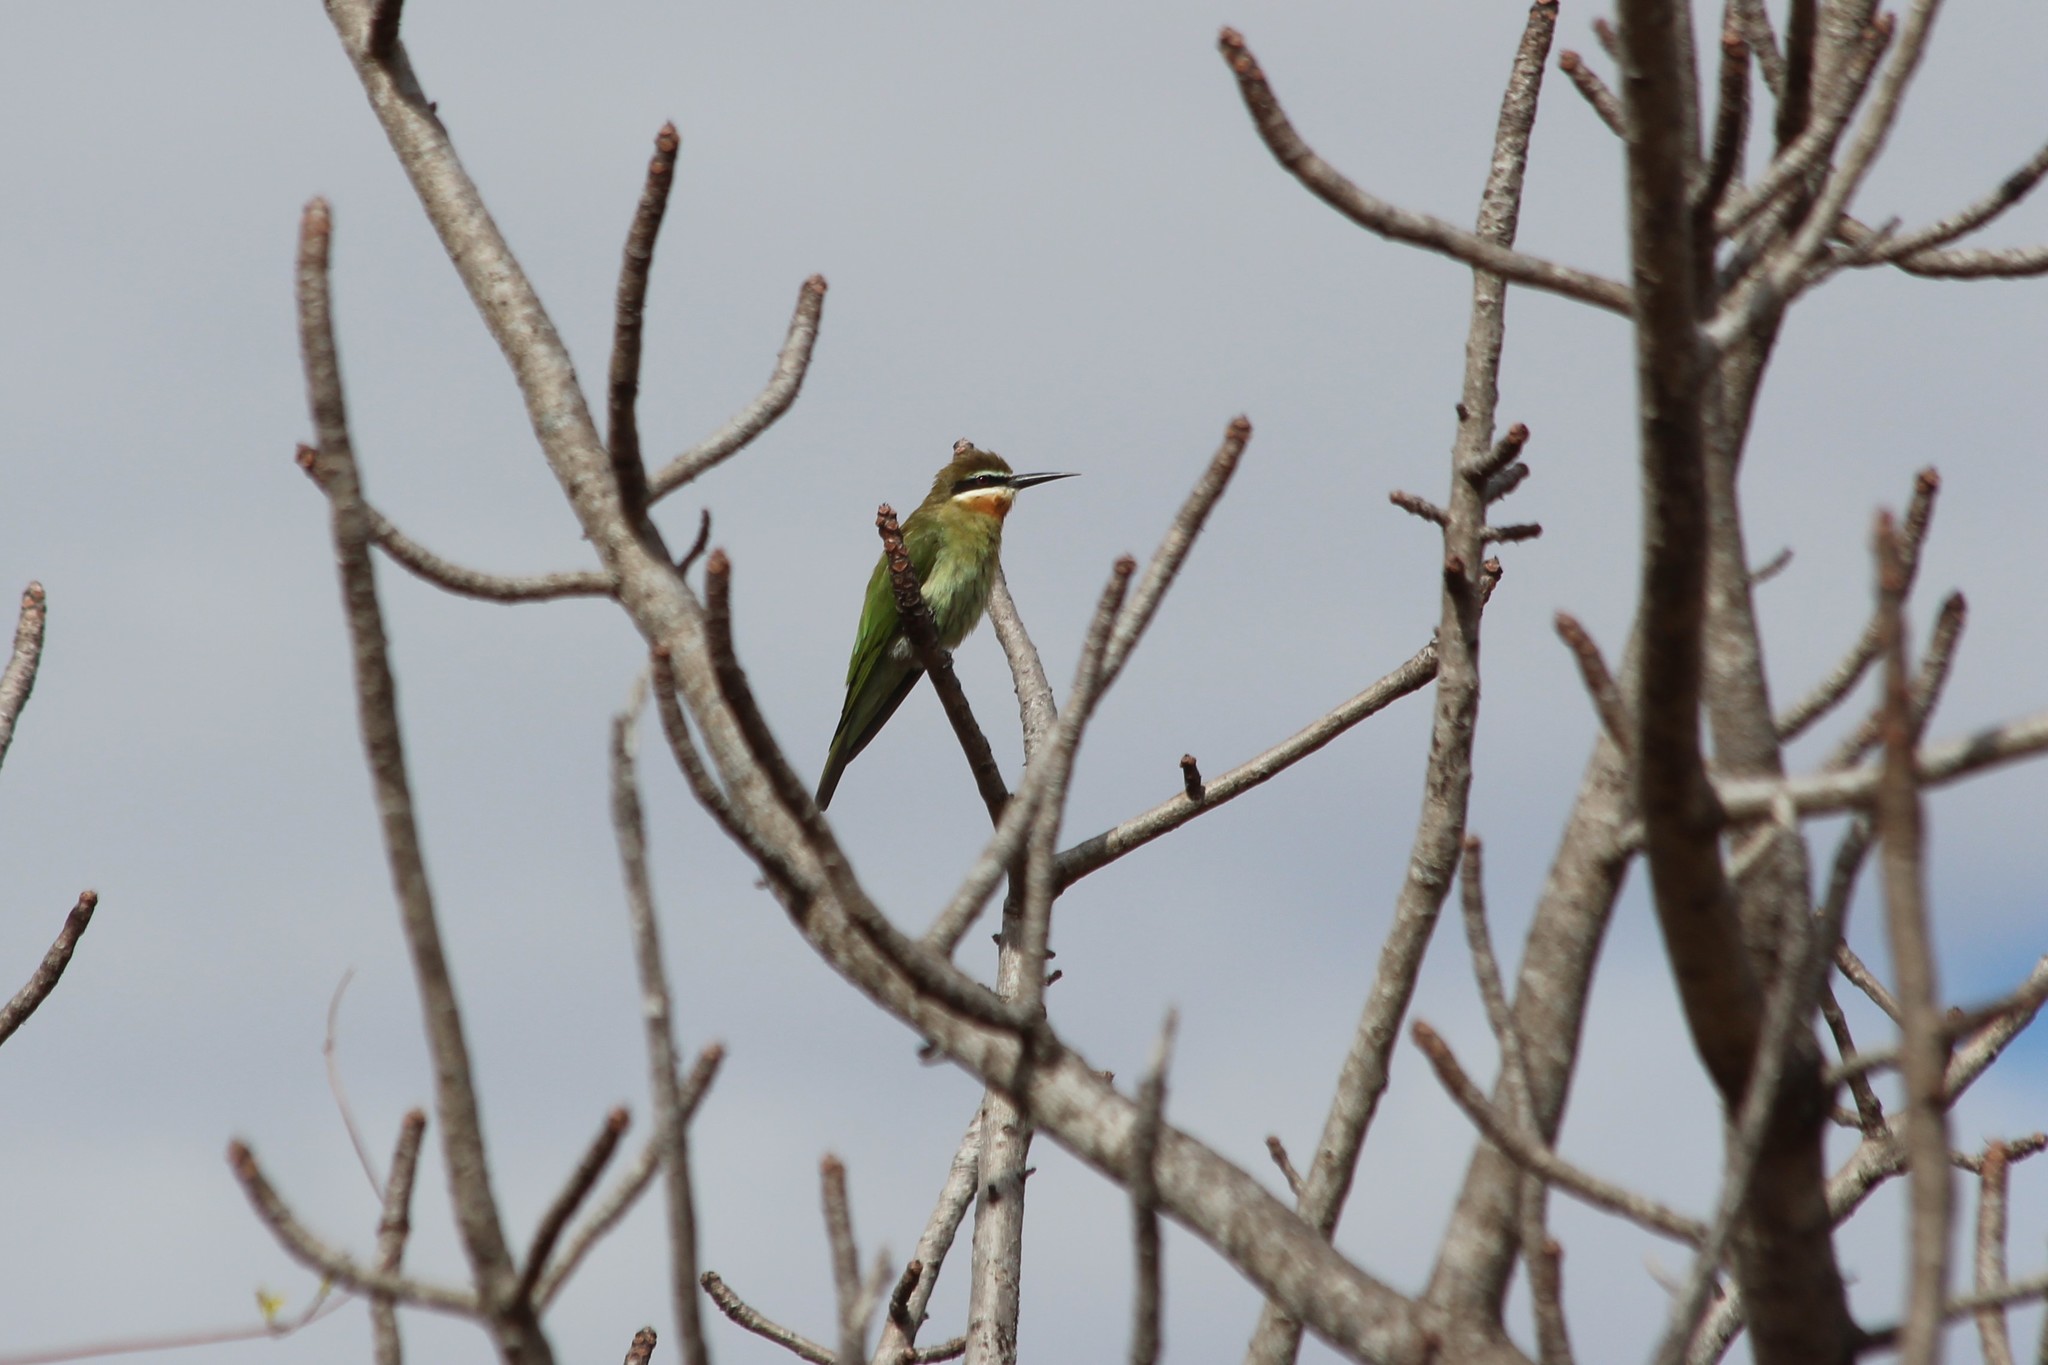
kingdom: Animalia
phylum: Chordata
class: Aves
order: Coraciiformes
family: Meropidae
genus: Merops
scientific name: Merops superciliosus
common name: Olive bee-eater
